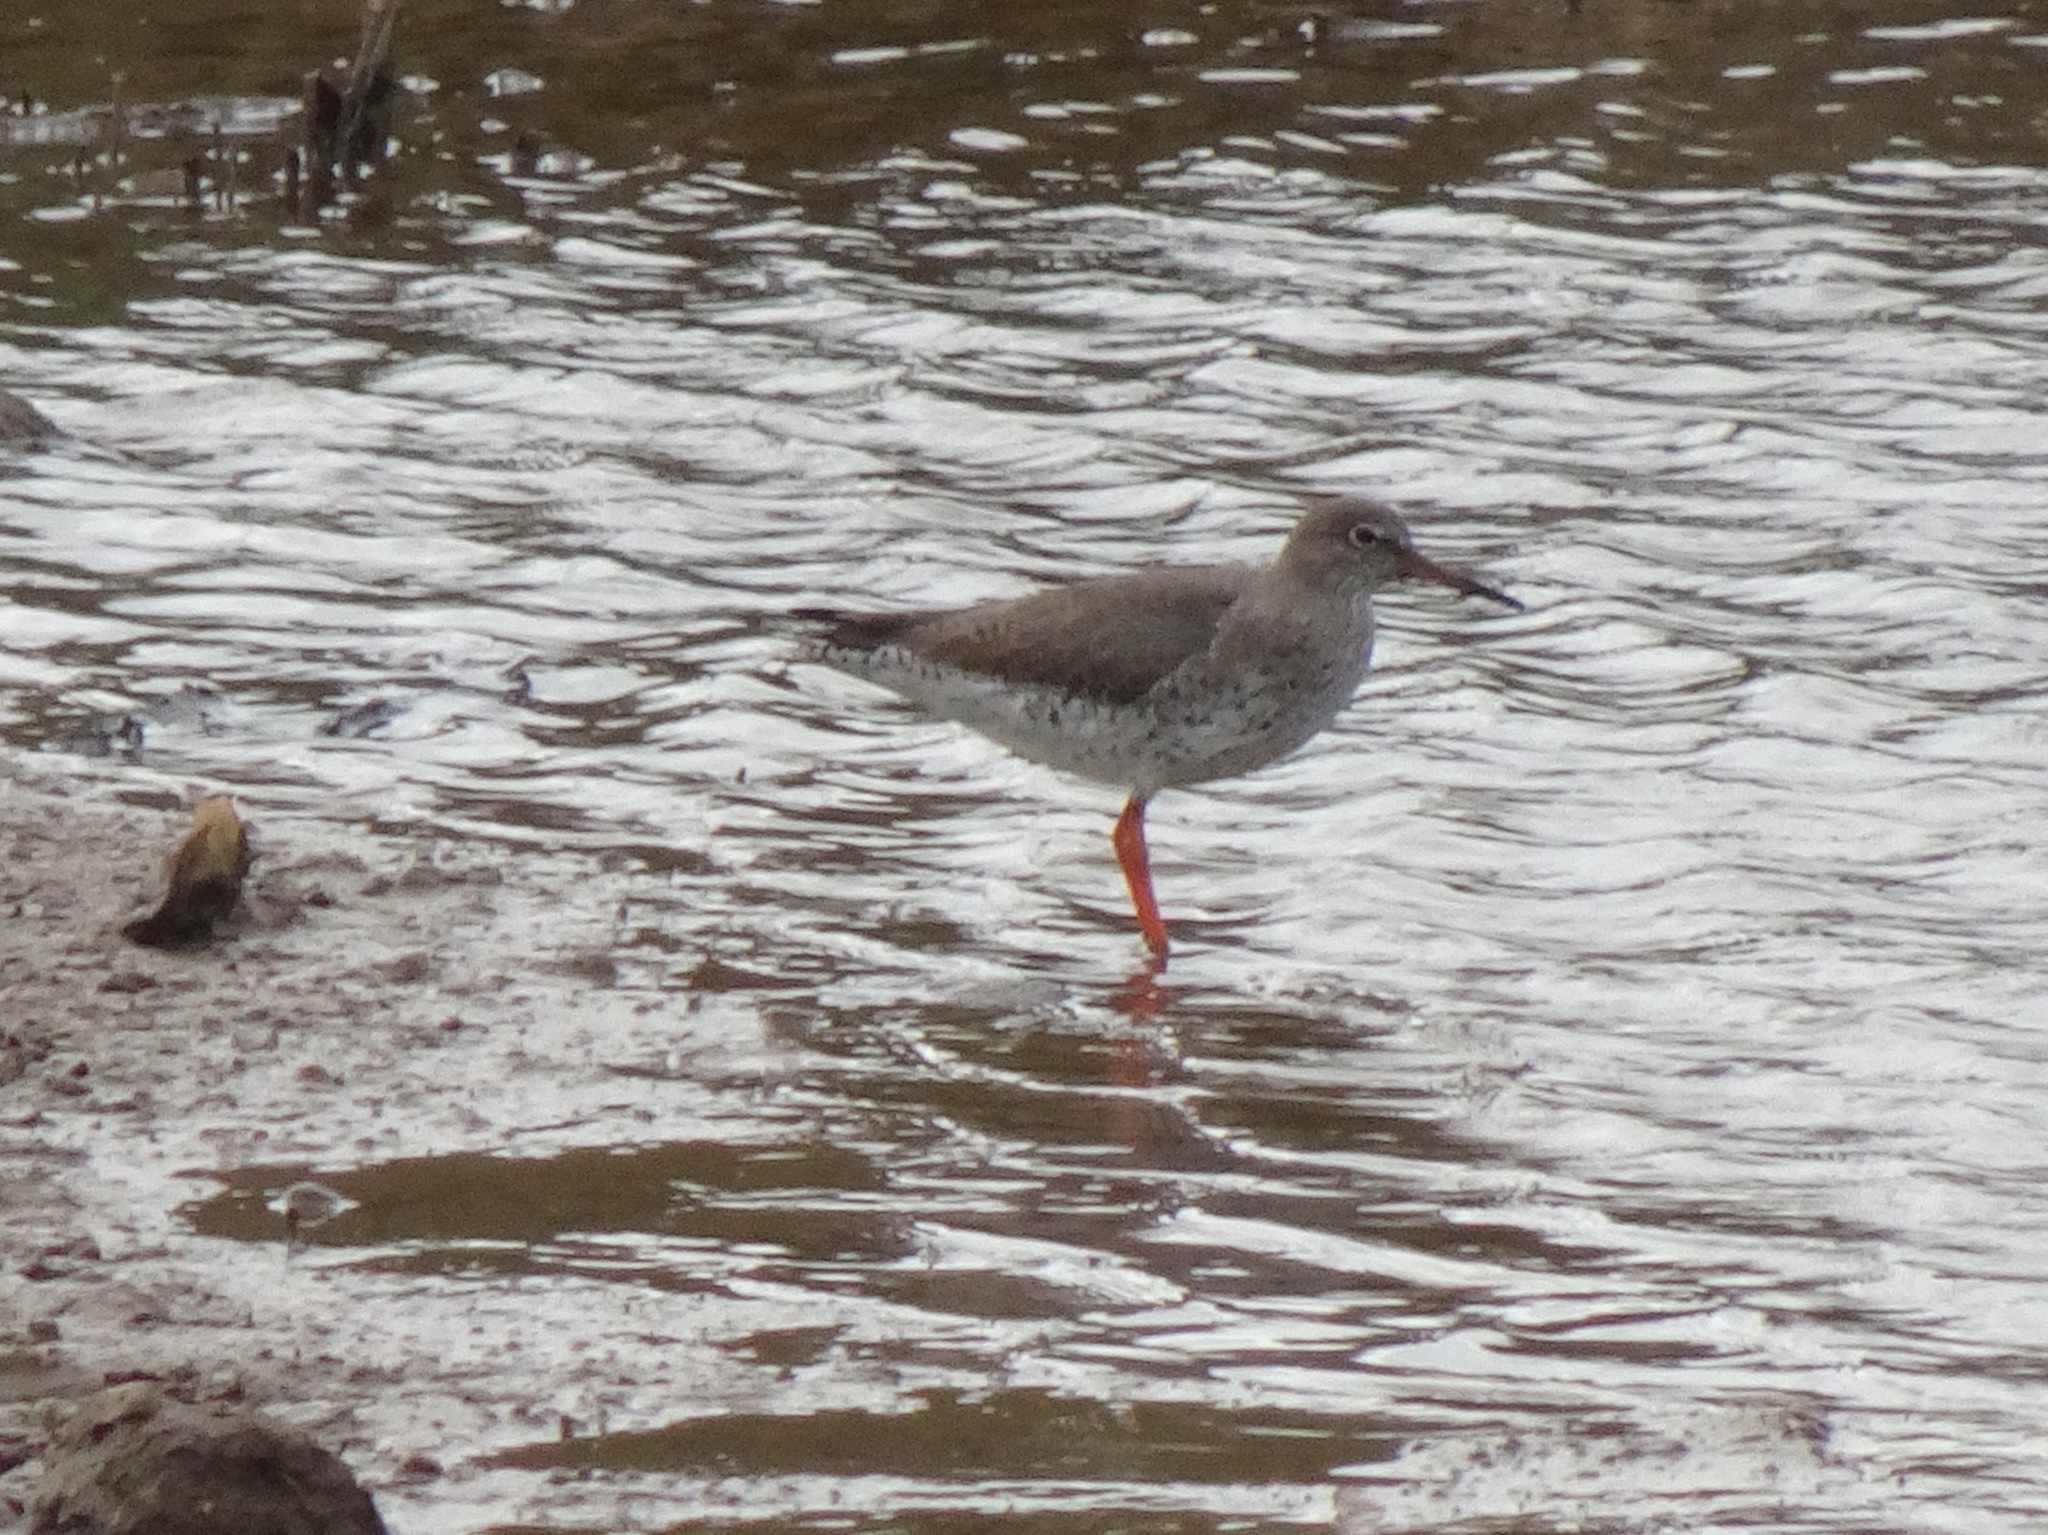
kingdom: Animalia
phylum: Chordata
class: Aves
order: Charadriiformes
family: Scolopacidae
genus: Tringa
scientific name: Tringa totanus
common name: Common redshank
